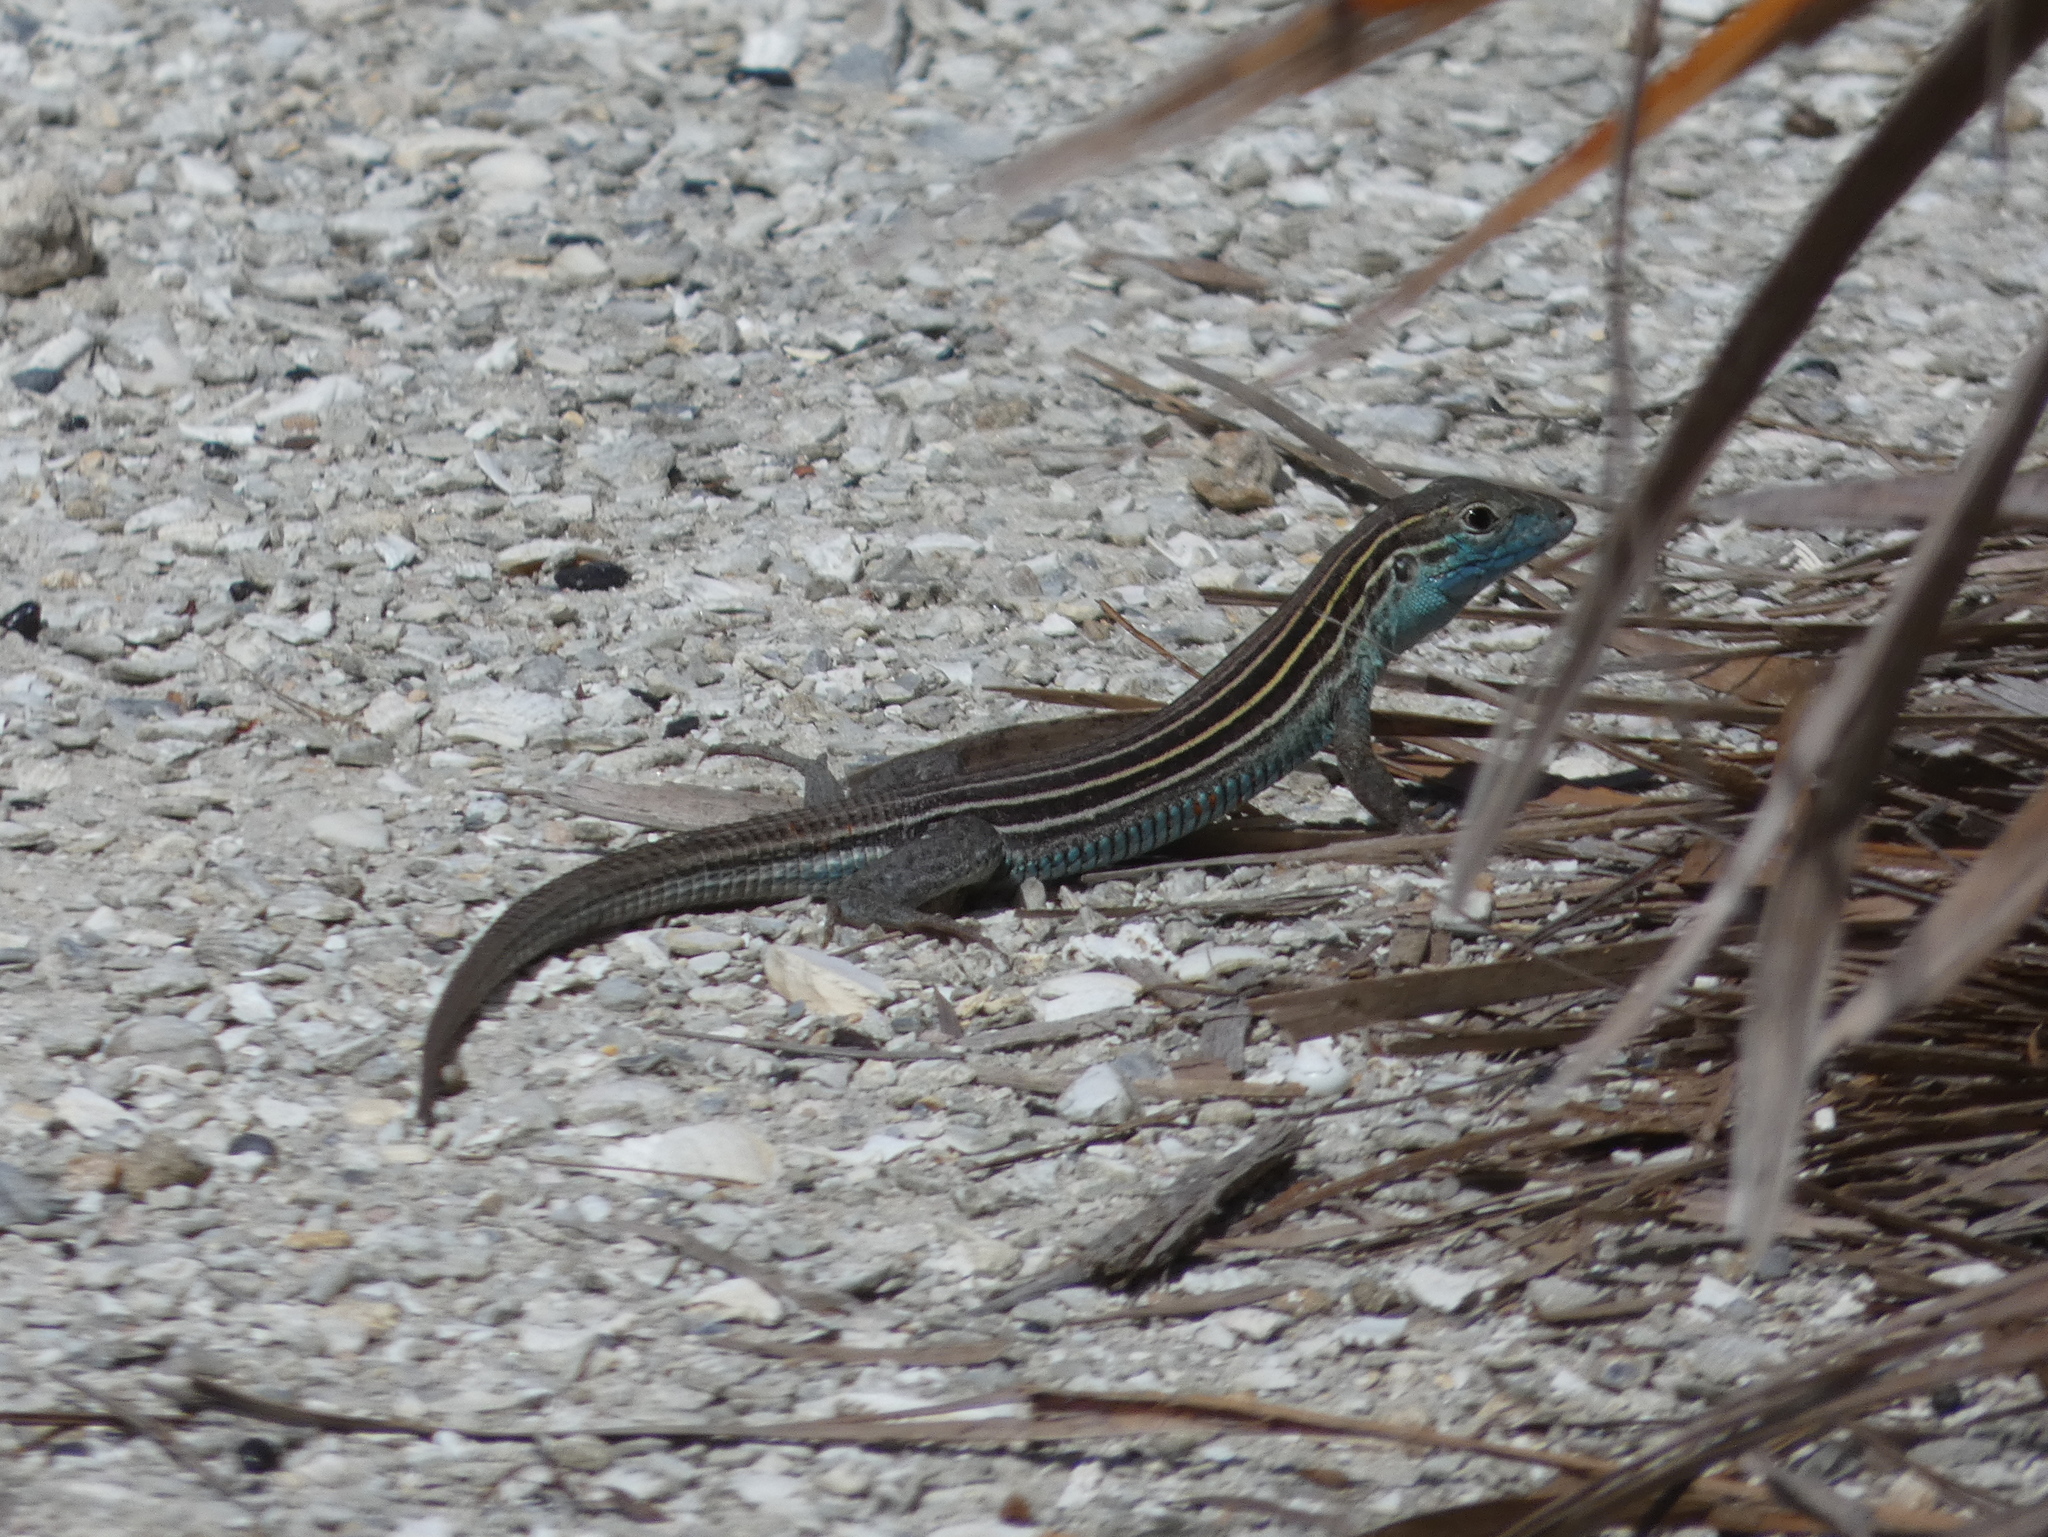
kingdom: Animalia
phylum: Chordata
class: Squamata
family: Teiidae
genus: Aspidoscelis
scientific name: Aspidoscelis sexlineatus
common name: Six-lined racerunner
